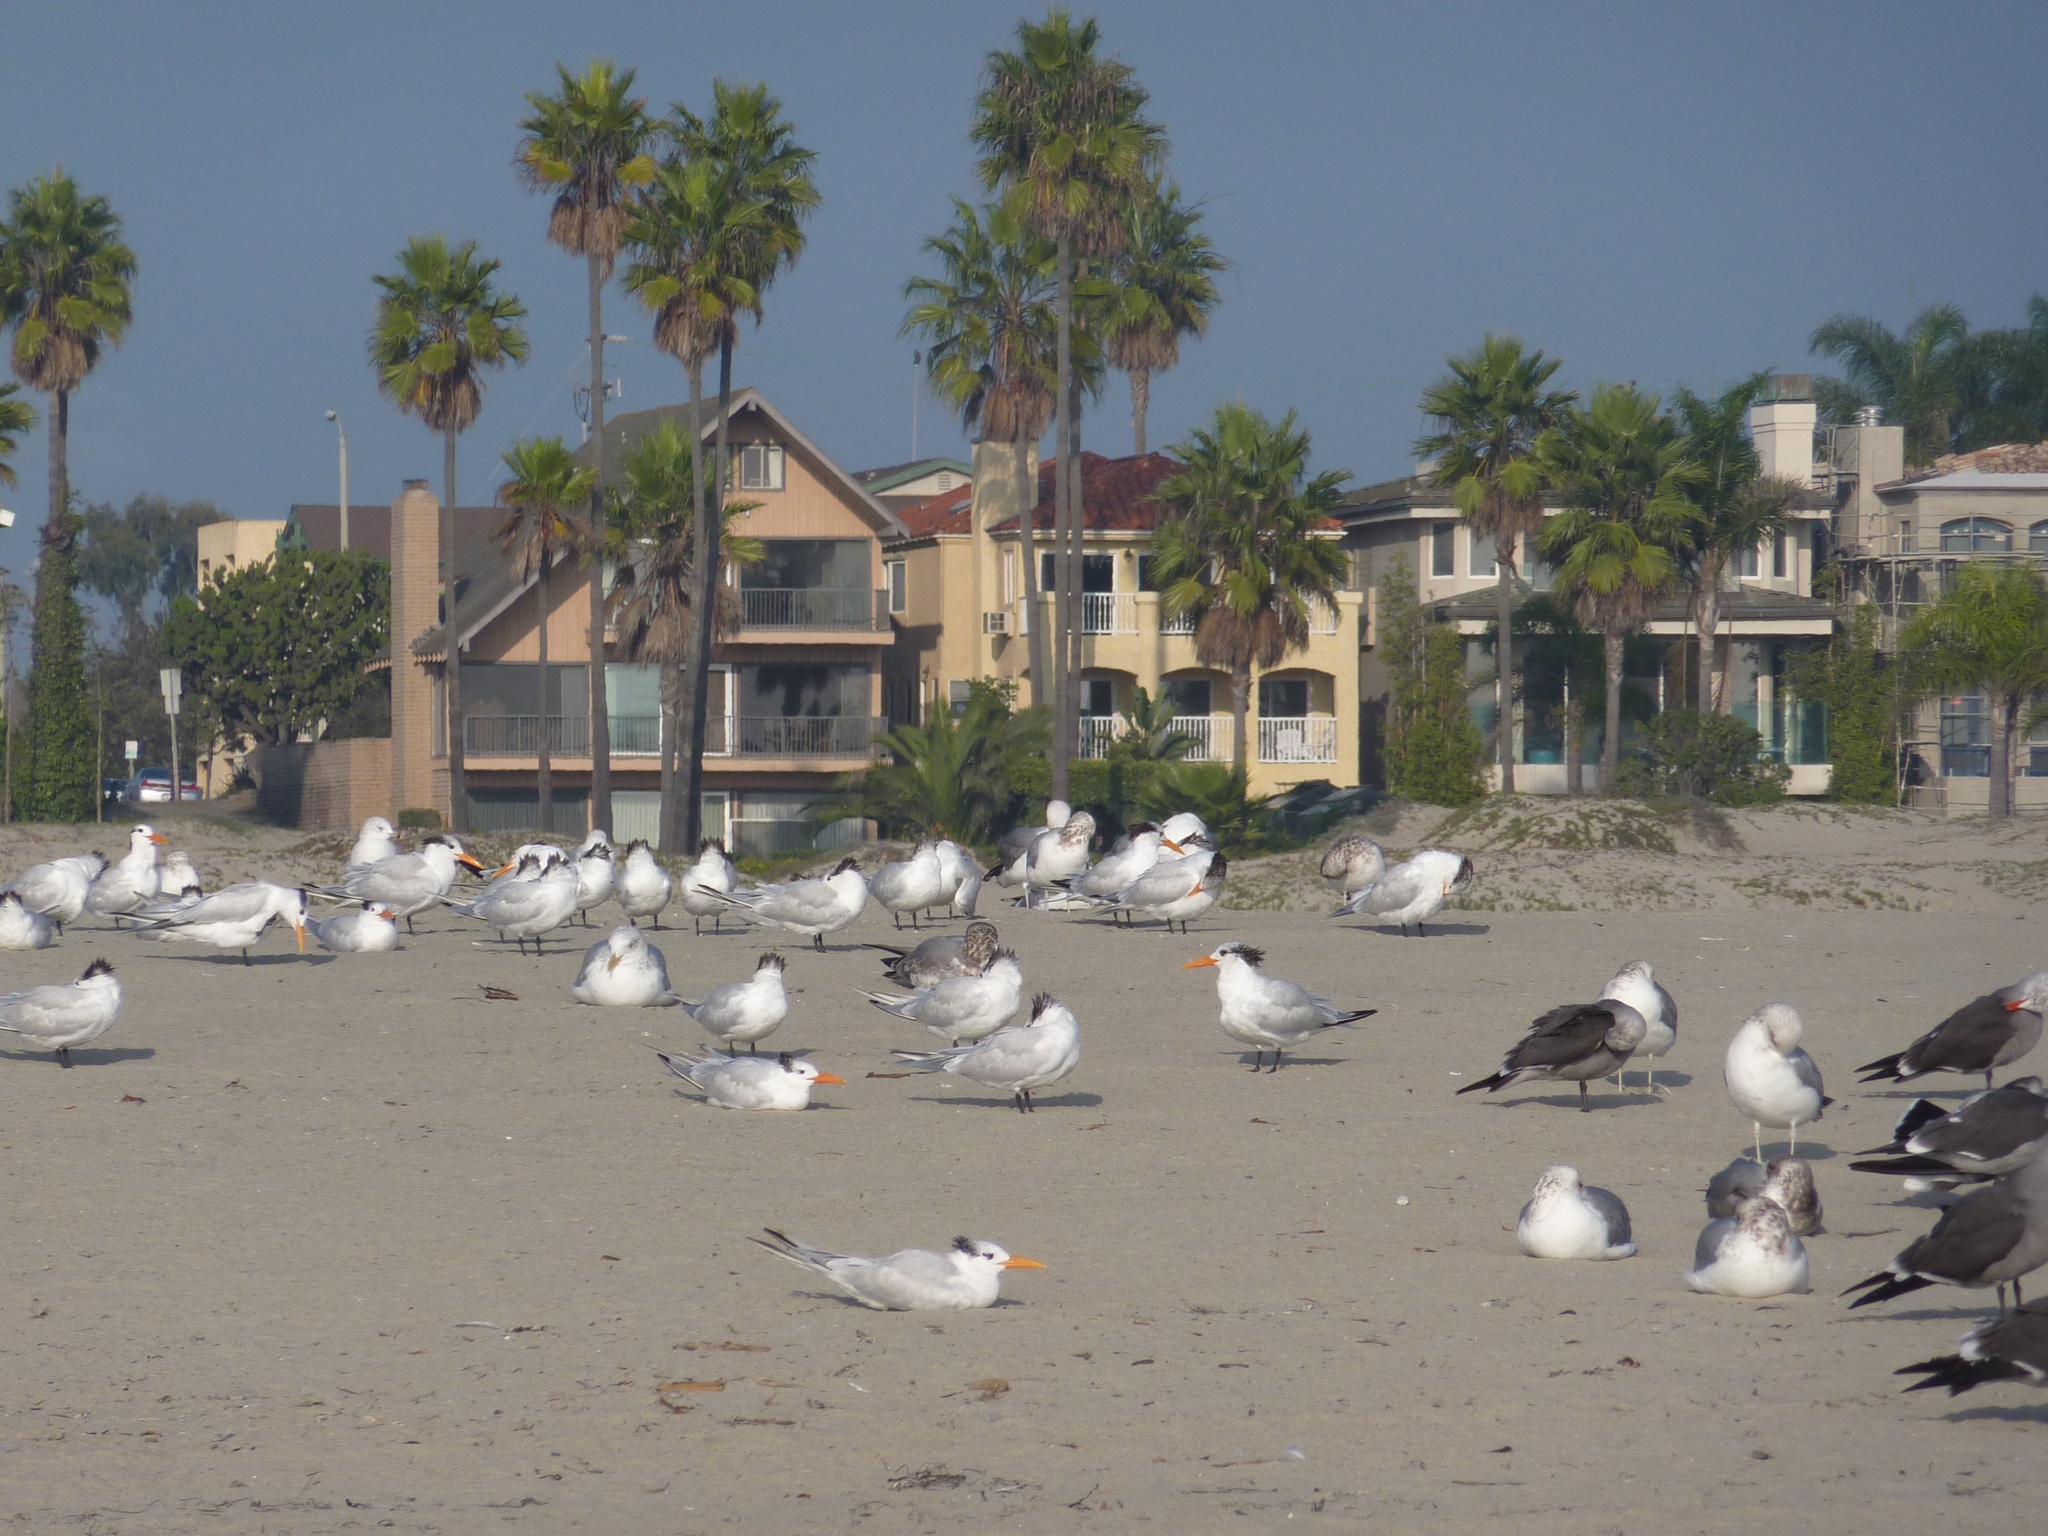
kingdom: Animalia
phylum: Chordata
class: Aves
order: Charadriiformes
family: Laridae
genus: Thalasseus
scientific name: Thalasseus maximus
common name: Royal tern
